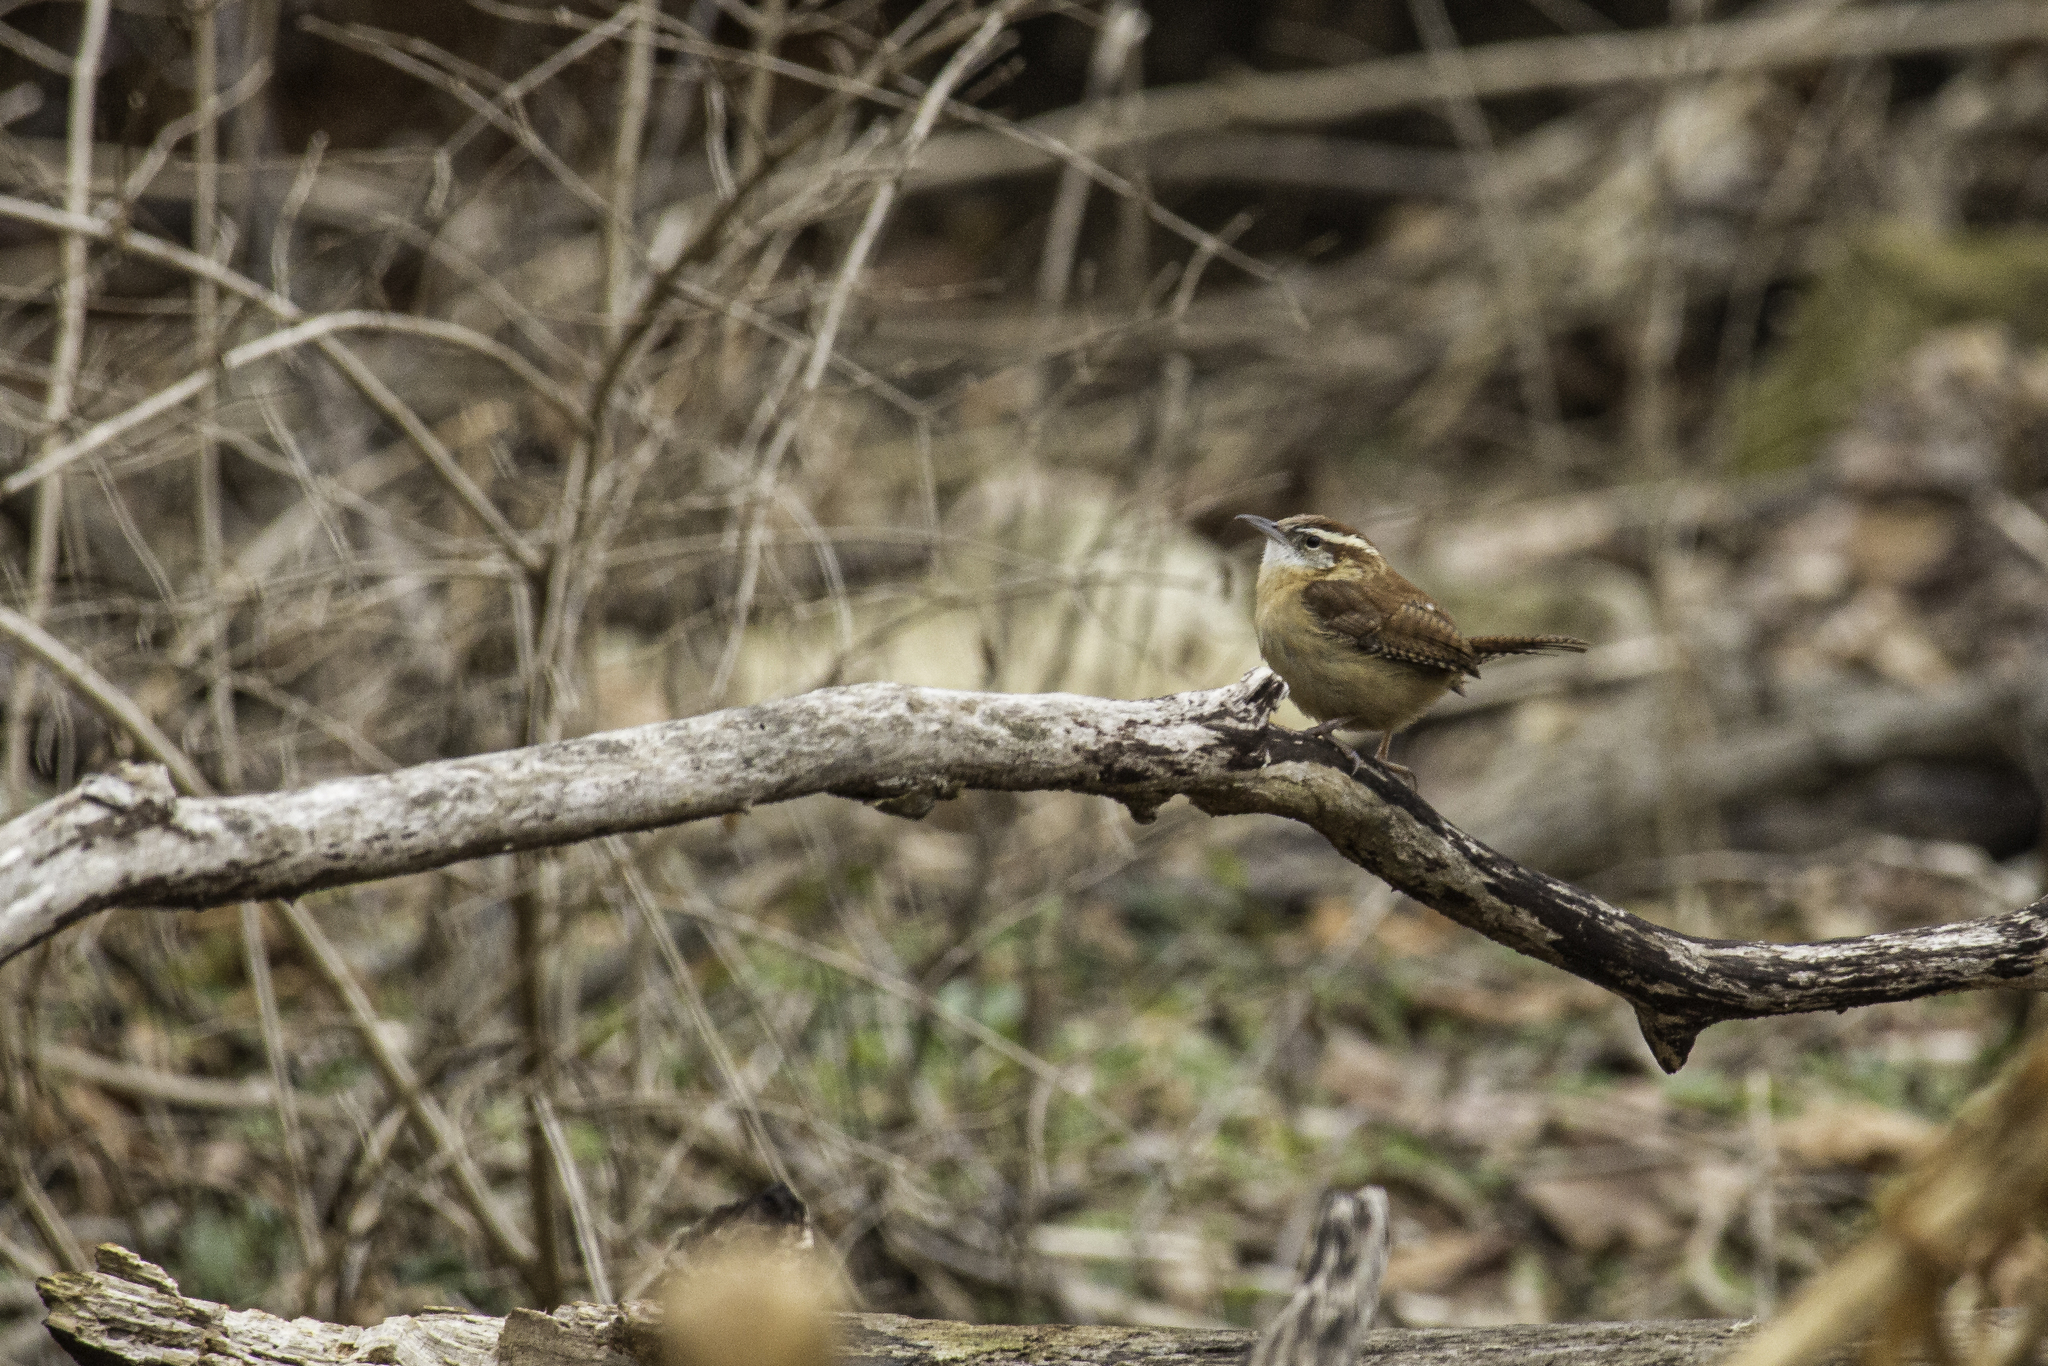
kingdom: Animalia
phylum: Chordata
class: Aves
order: Passeriformes
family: Troglodytidae
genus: Thryothorus
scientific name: Thryothorus ludovicianus
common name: Carolina wren
